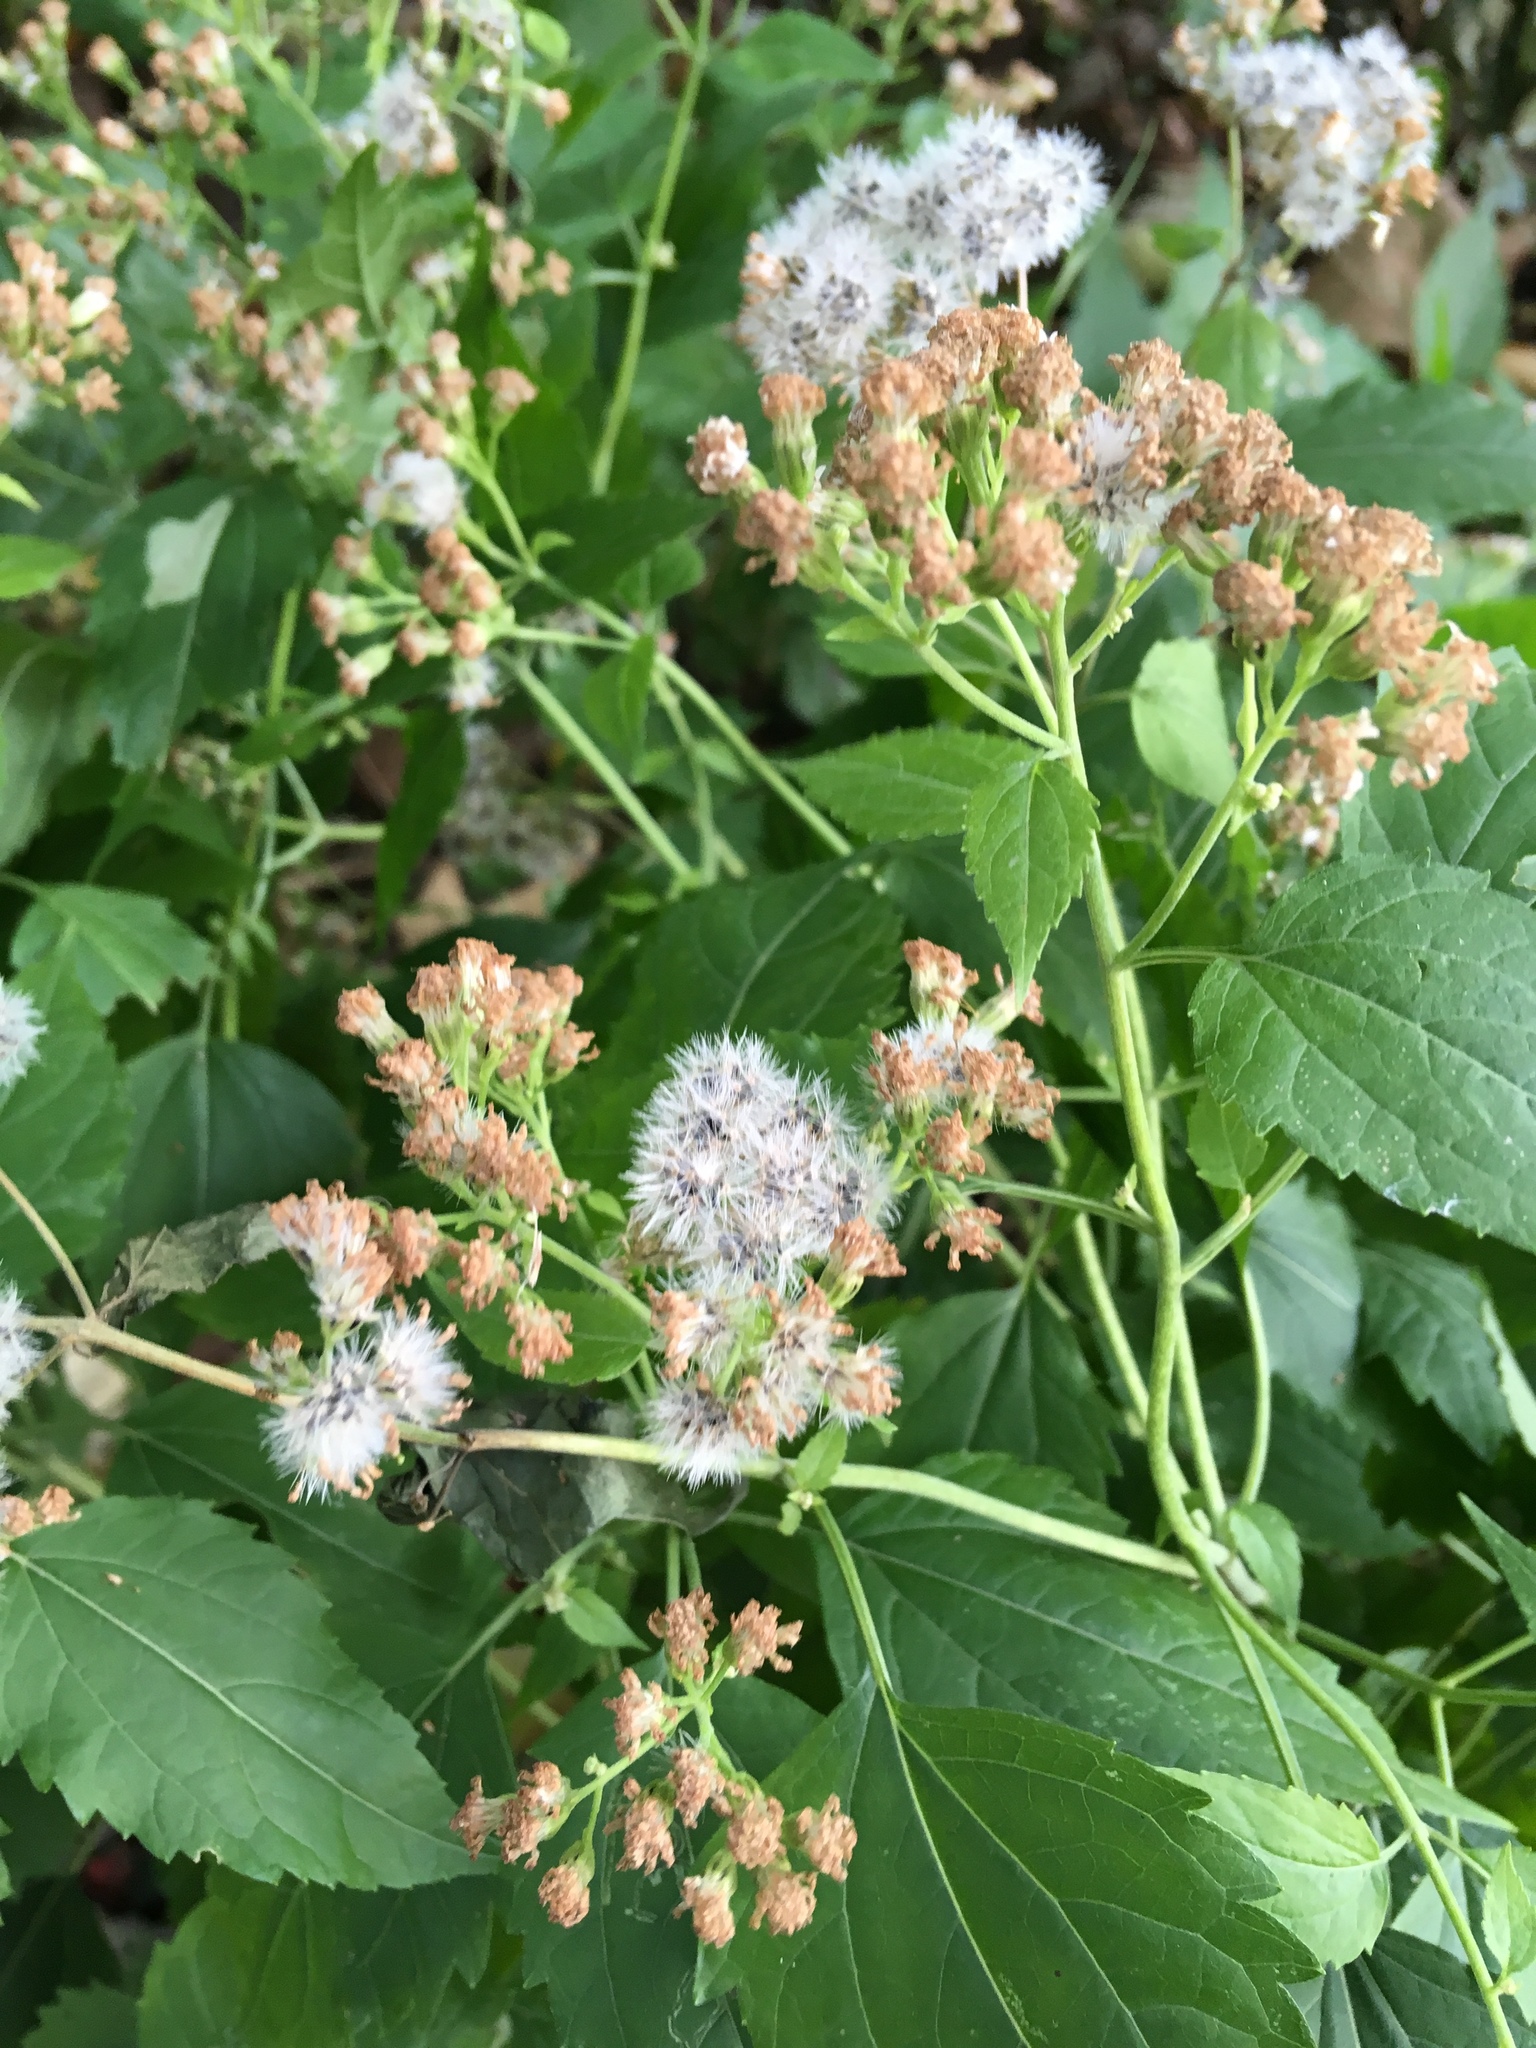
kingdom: Plantae
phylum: Tracheophyta
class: Magnoliopsida
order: Asterales
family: Asteraceae
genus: Ageratina
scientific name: Ageratina altissima
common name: White snakeroot
